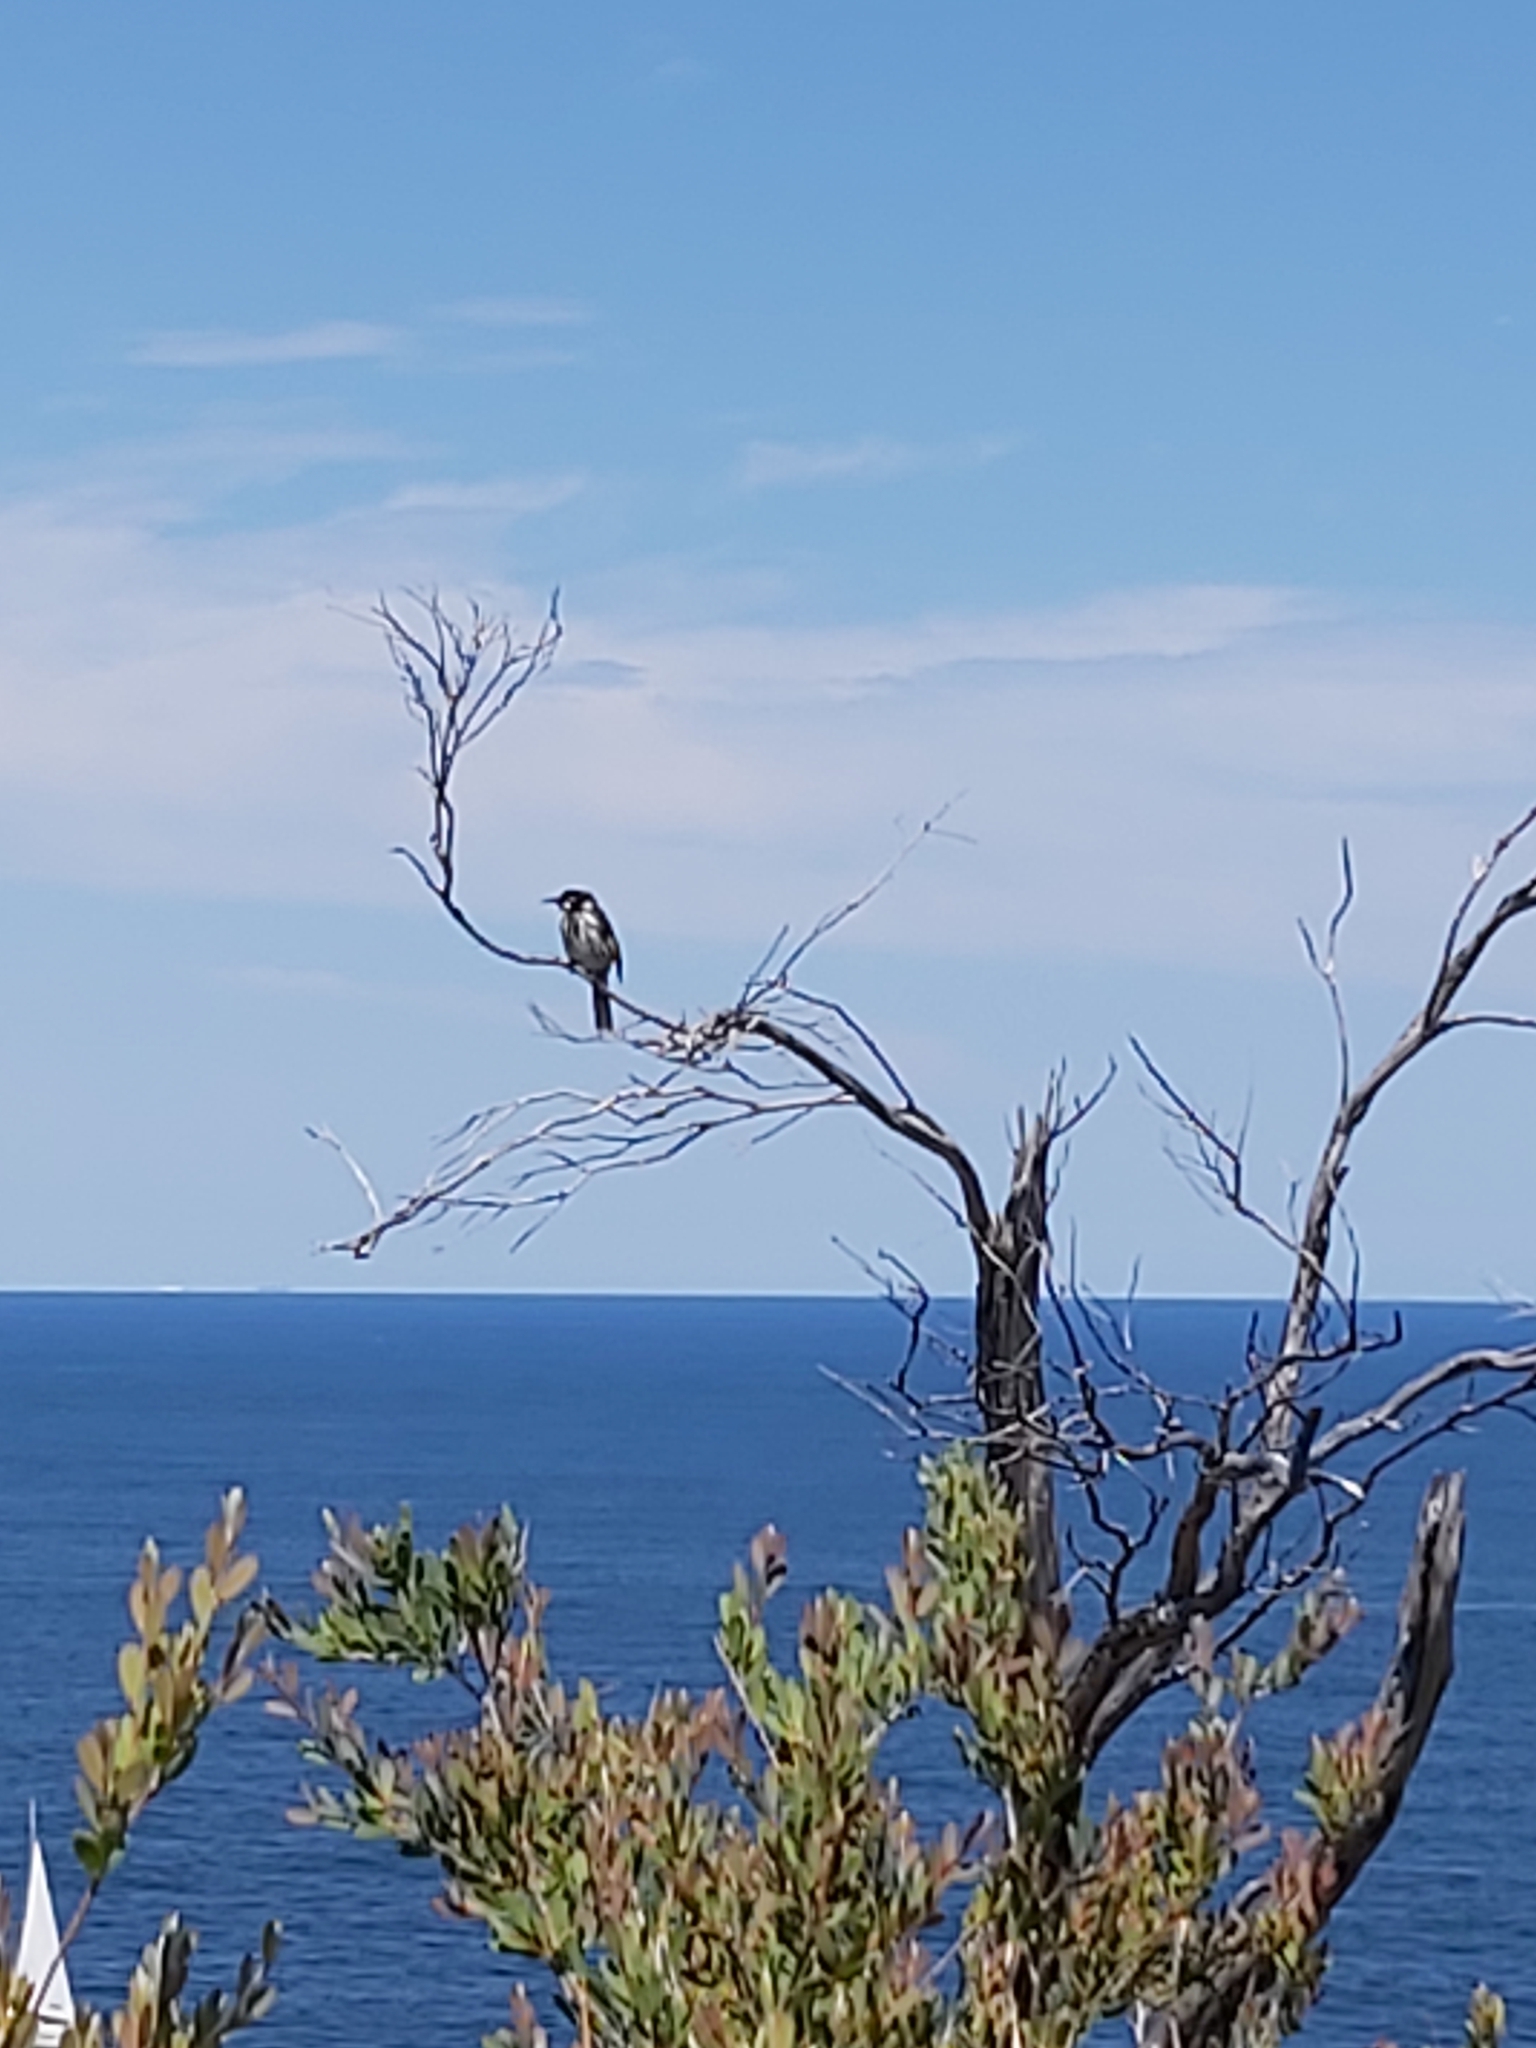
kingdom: Animalia
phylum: Chordata
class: Aves
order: Passeriformes
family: Meliphagidae
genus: Phylidonyris
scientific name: Phylidonyris novaehollandiae
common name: New holland honeyeater
